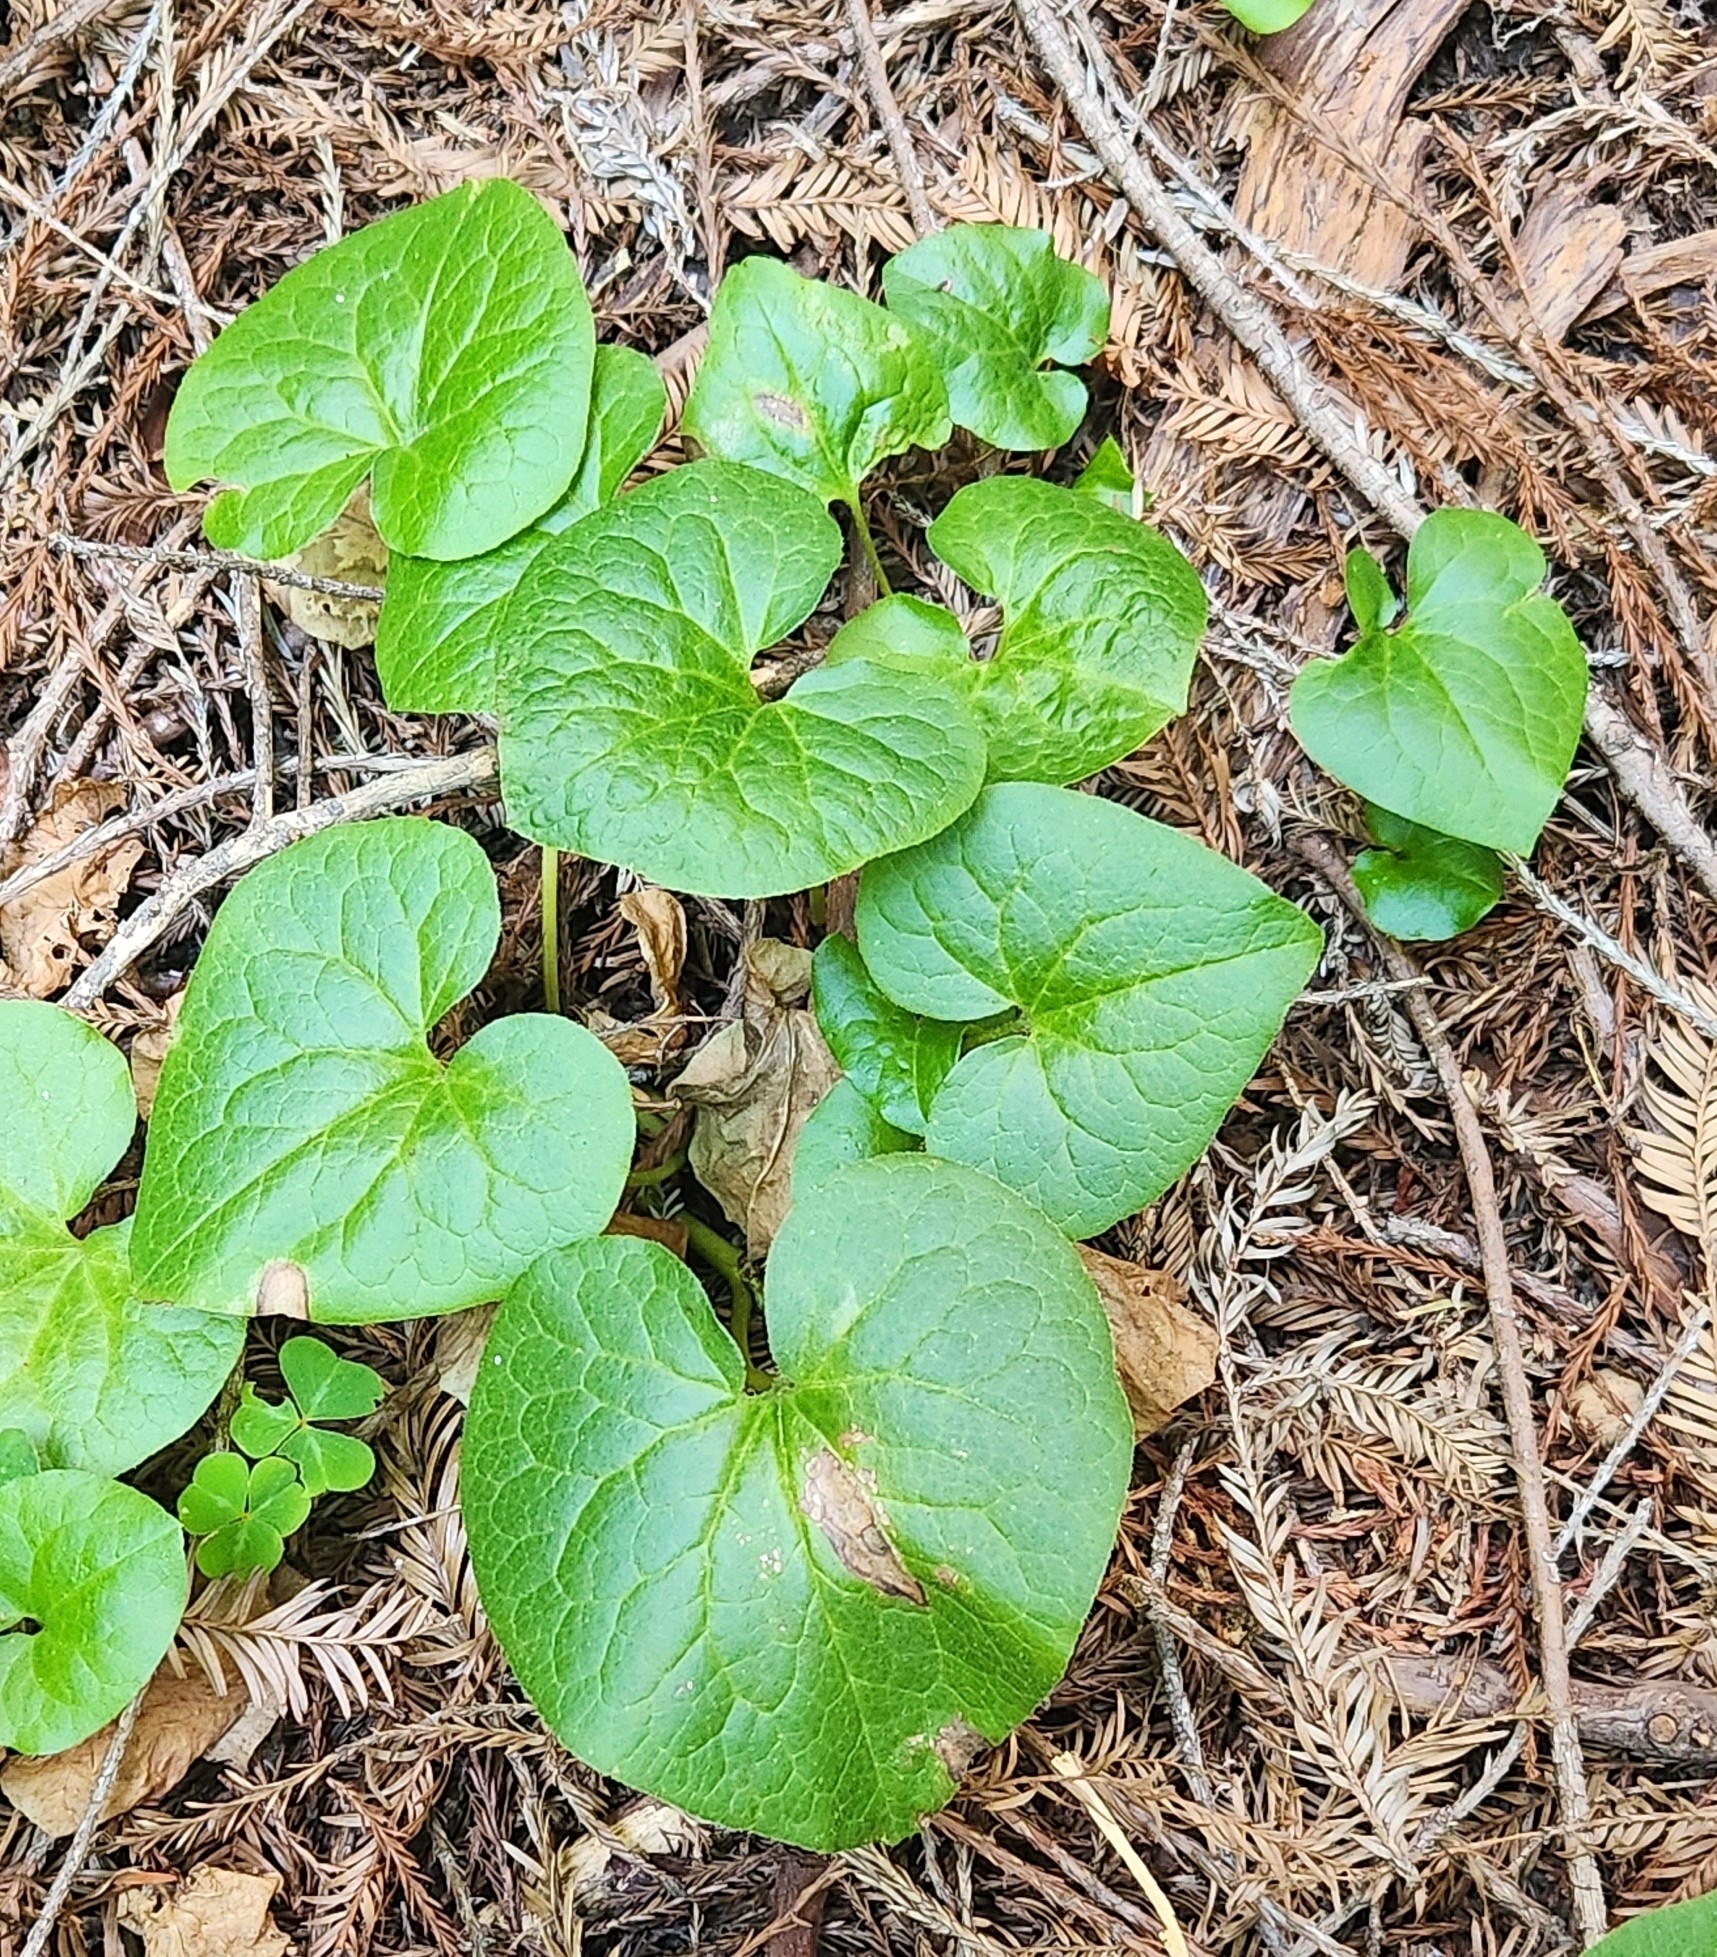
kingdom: Plantae
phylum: Tracheophyta
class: Magnoliopsida
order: Piperales
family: Aristolochiaceae
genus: Asarum
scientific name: Asarum caudatum
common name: Wild ginger
